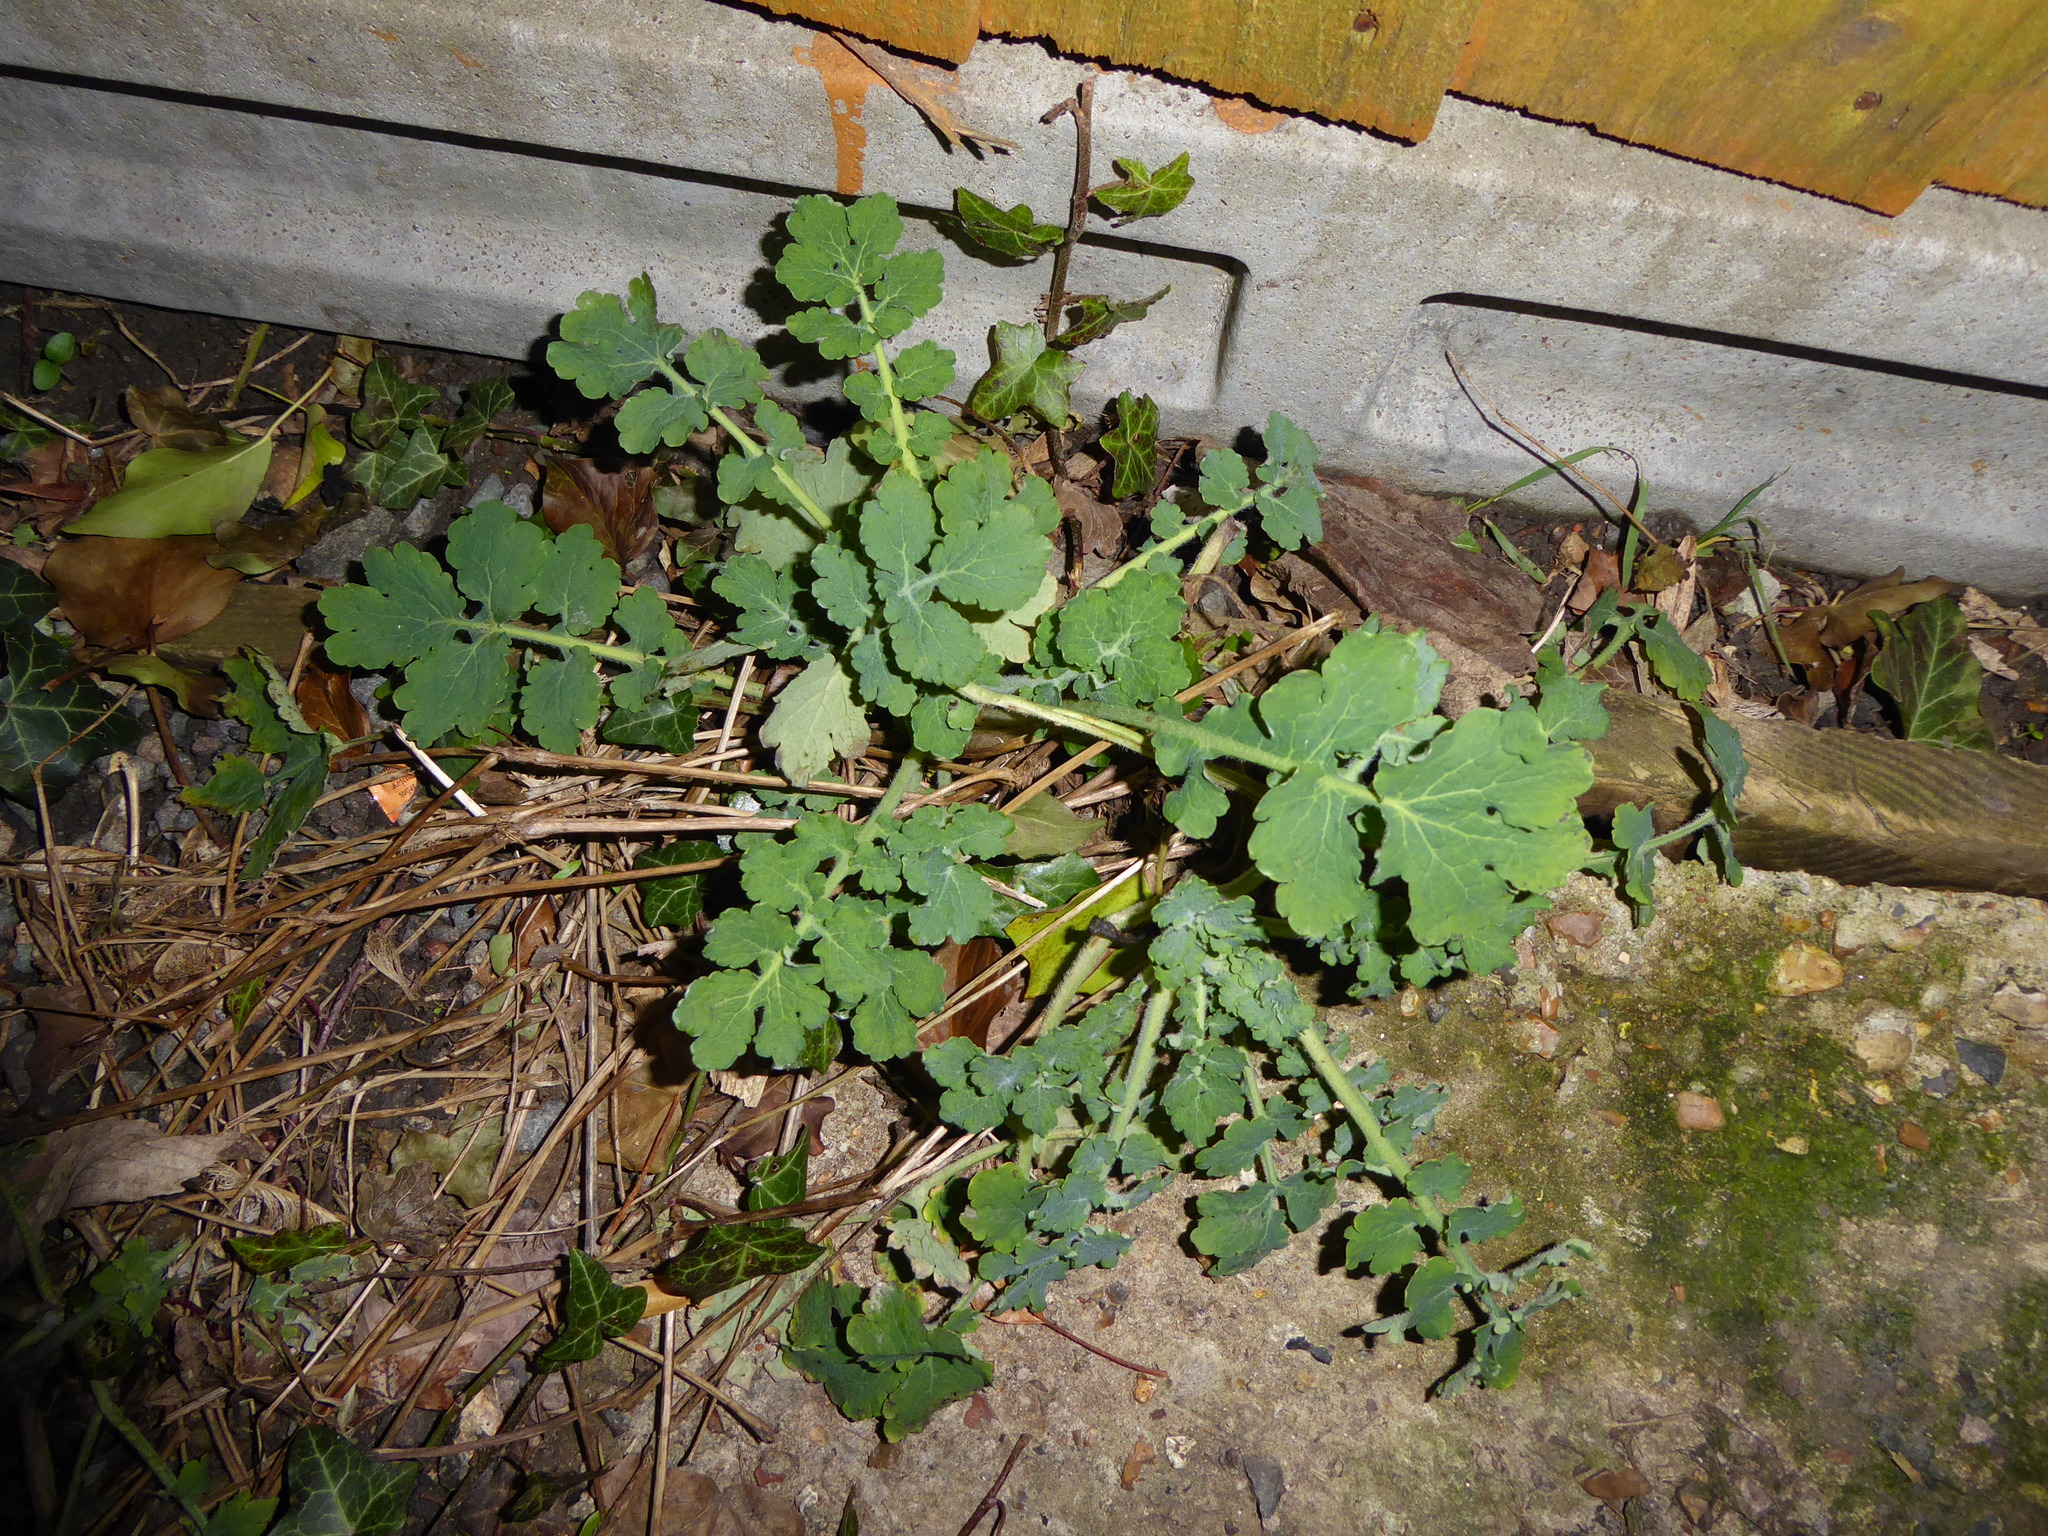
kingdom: Plantae
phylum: Tracheophyta
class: Magnoliopsida
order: Ranunculales
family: Papaveraceae
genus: Chelidonium
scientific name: Chelidonium majus
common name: Greater celandine
